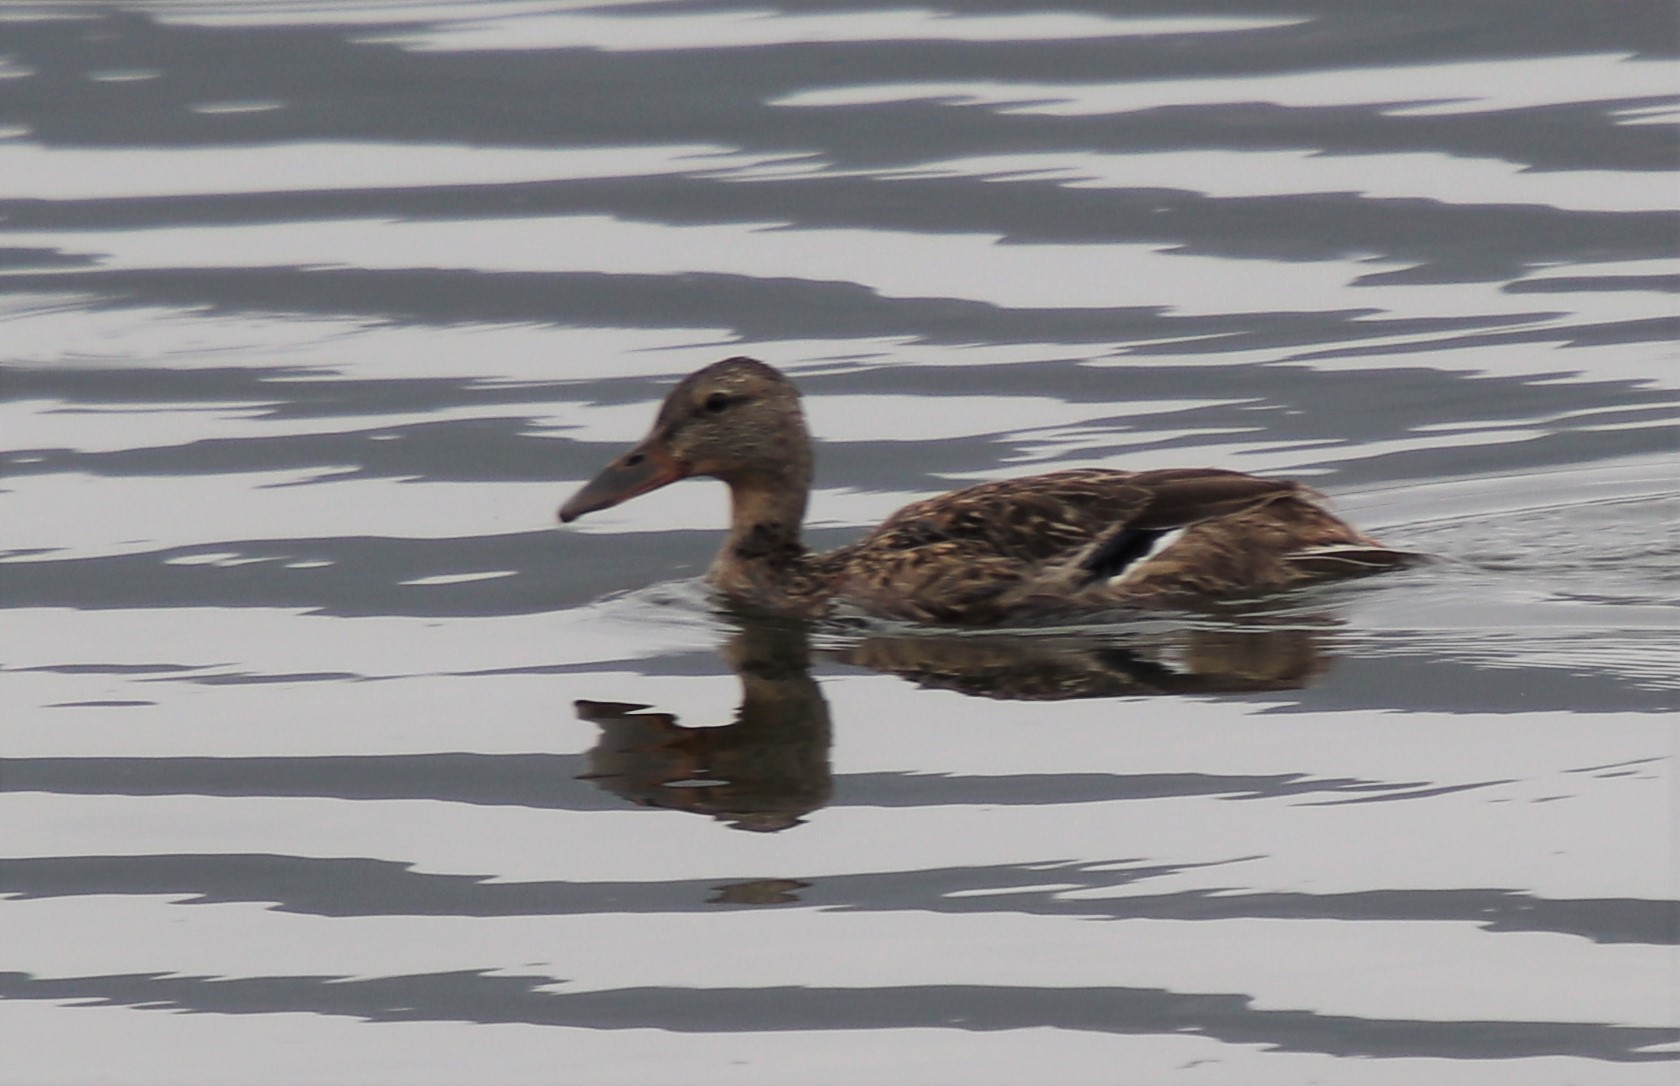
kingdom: Animalia
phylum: Chordata
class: Aves
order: Anseriformes
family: Anatidae
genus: Anas
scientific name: Anas platyrhynchos
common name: Mallard
